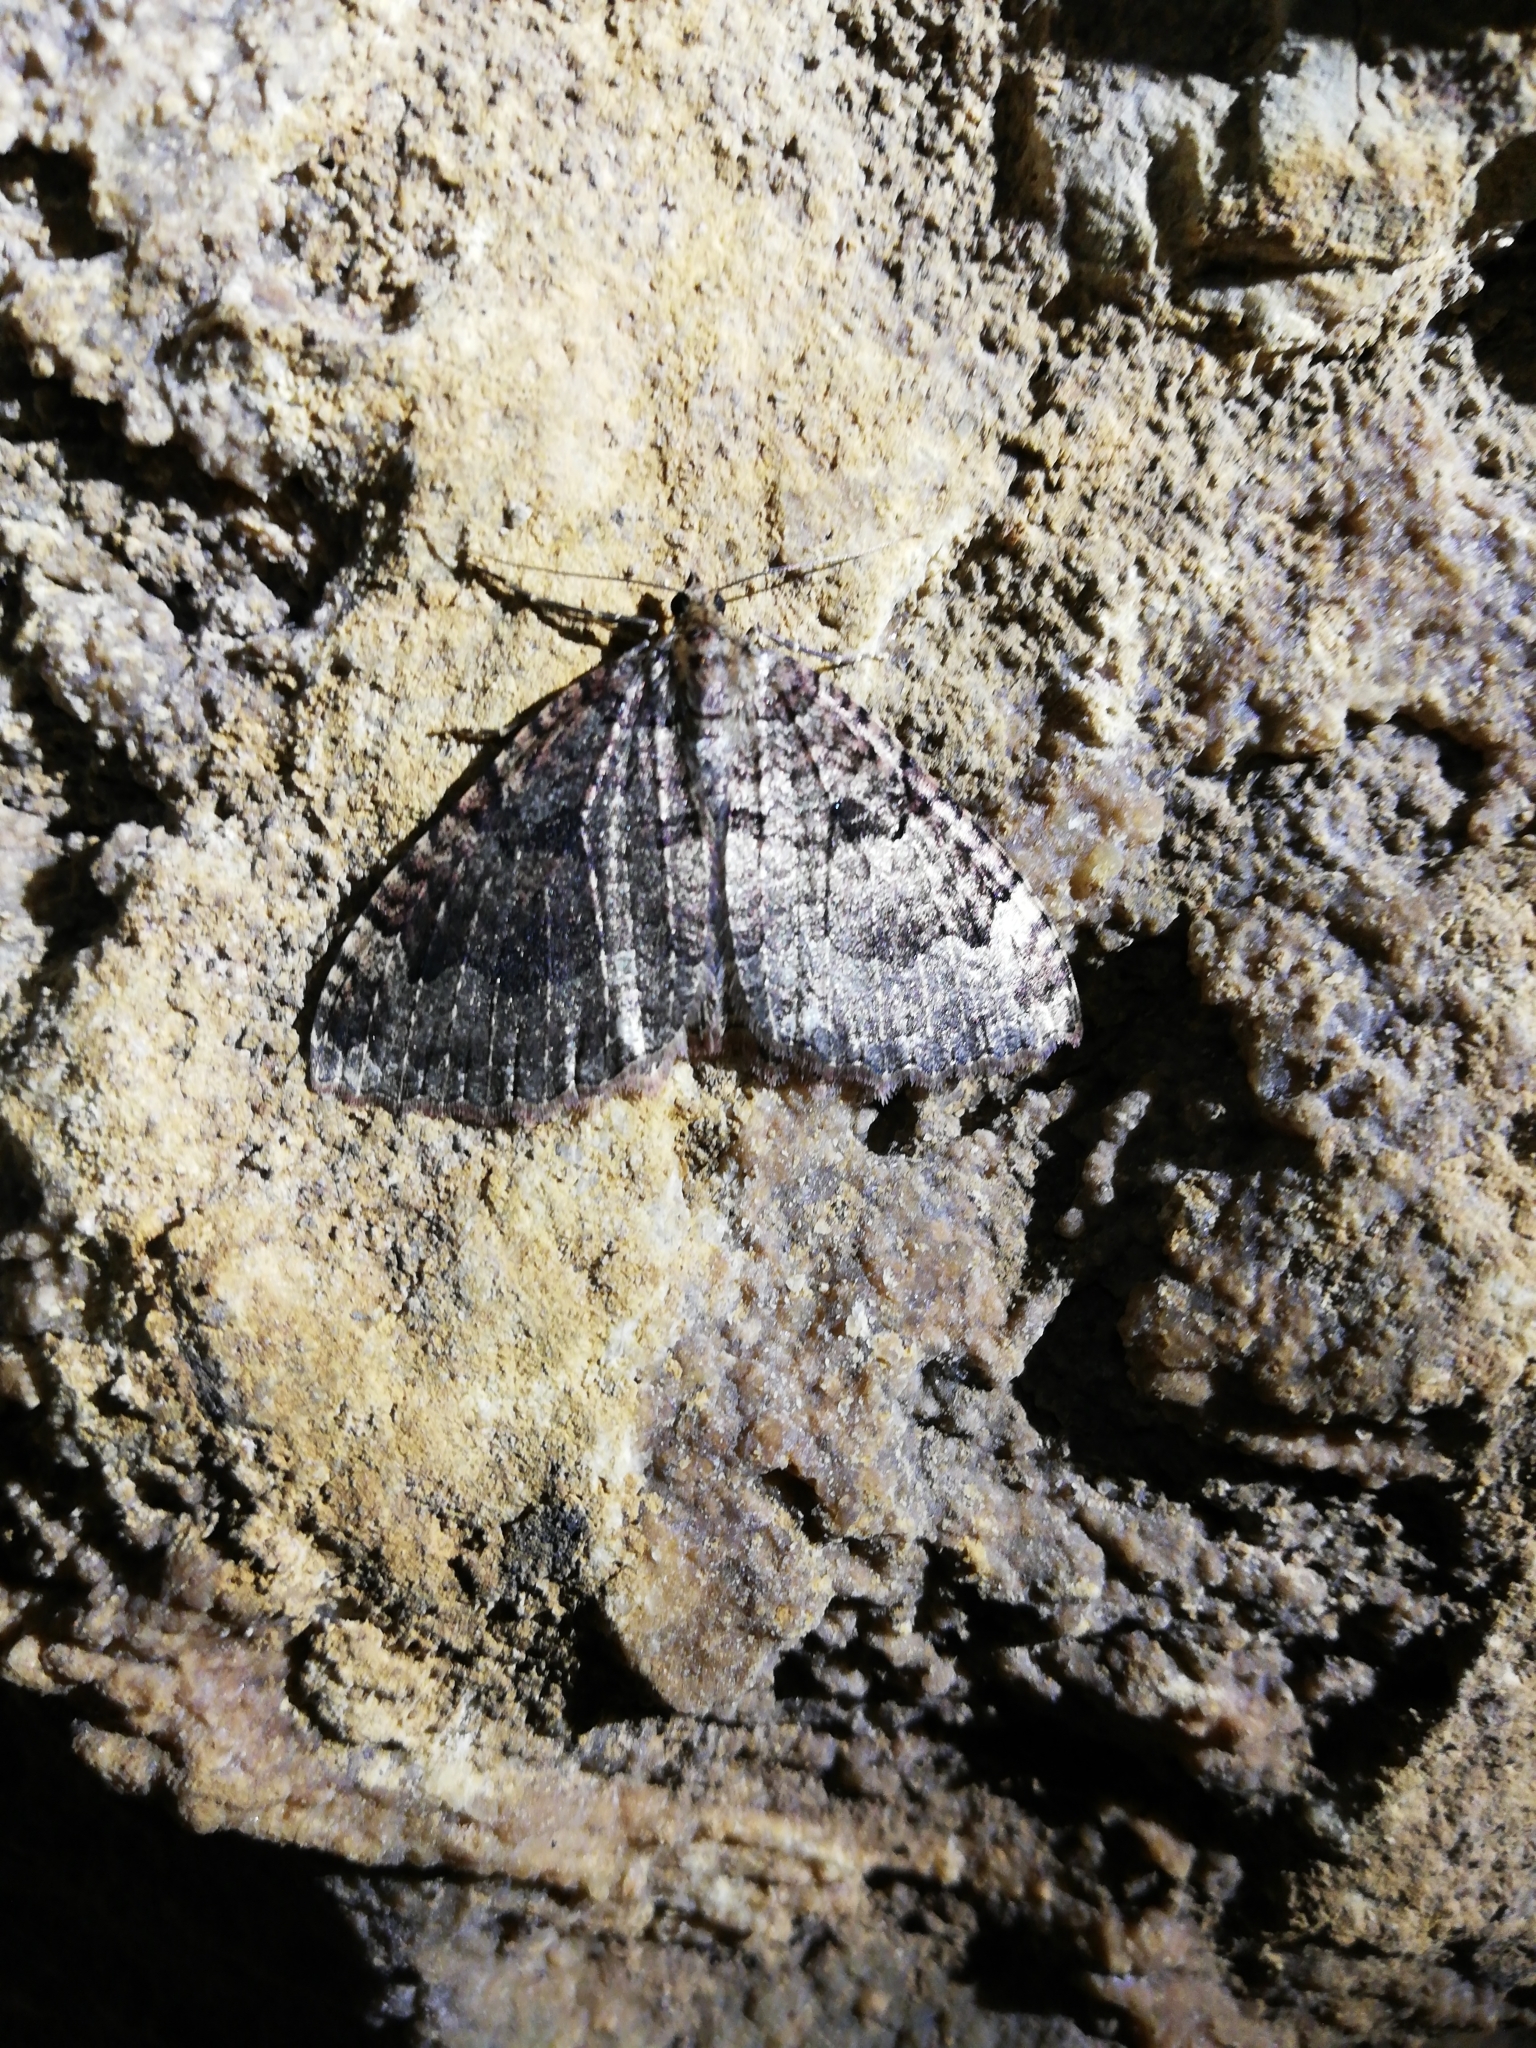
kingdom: Animalia
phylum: Arthropoda
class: Insecta
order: Lepidoptera
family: Geometridae
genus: Triphosa
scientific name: Triphosa dubitata
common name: Tissue
